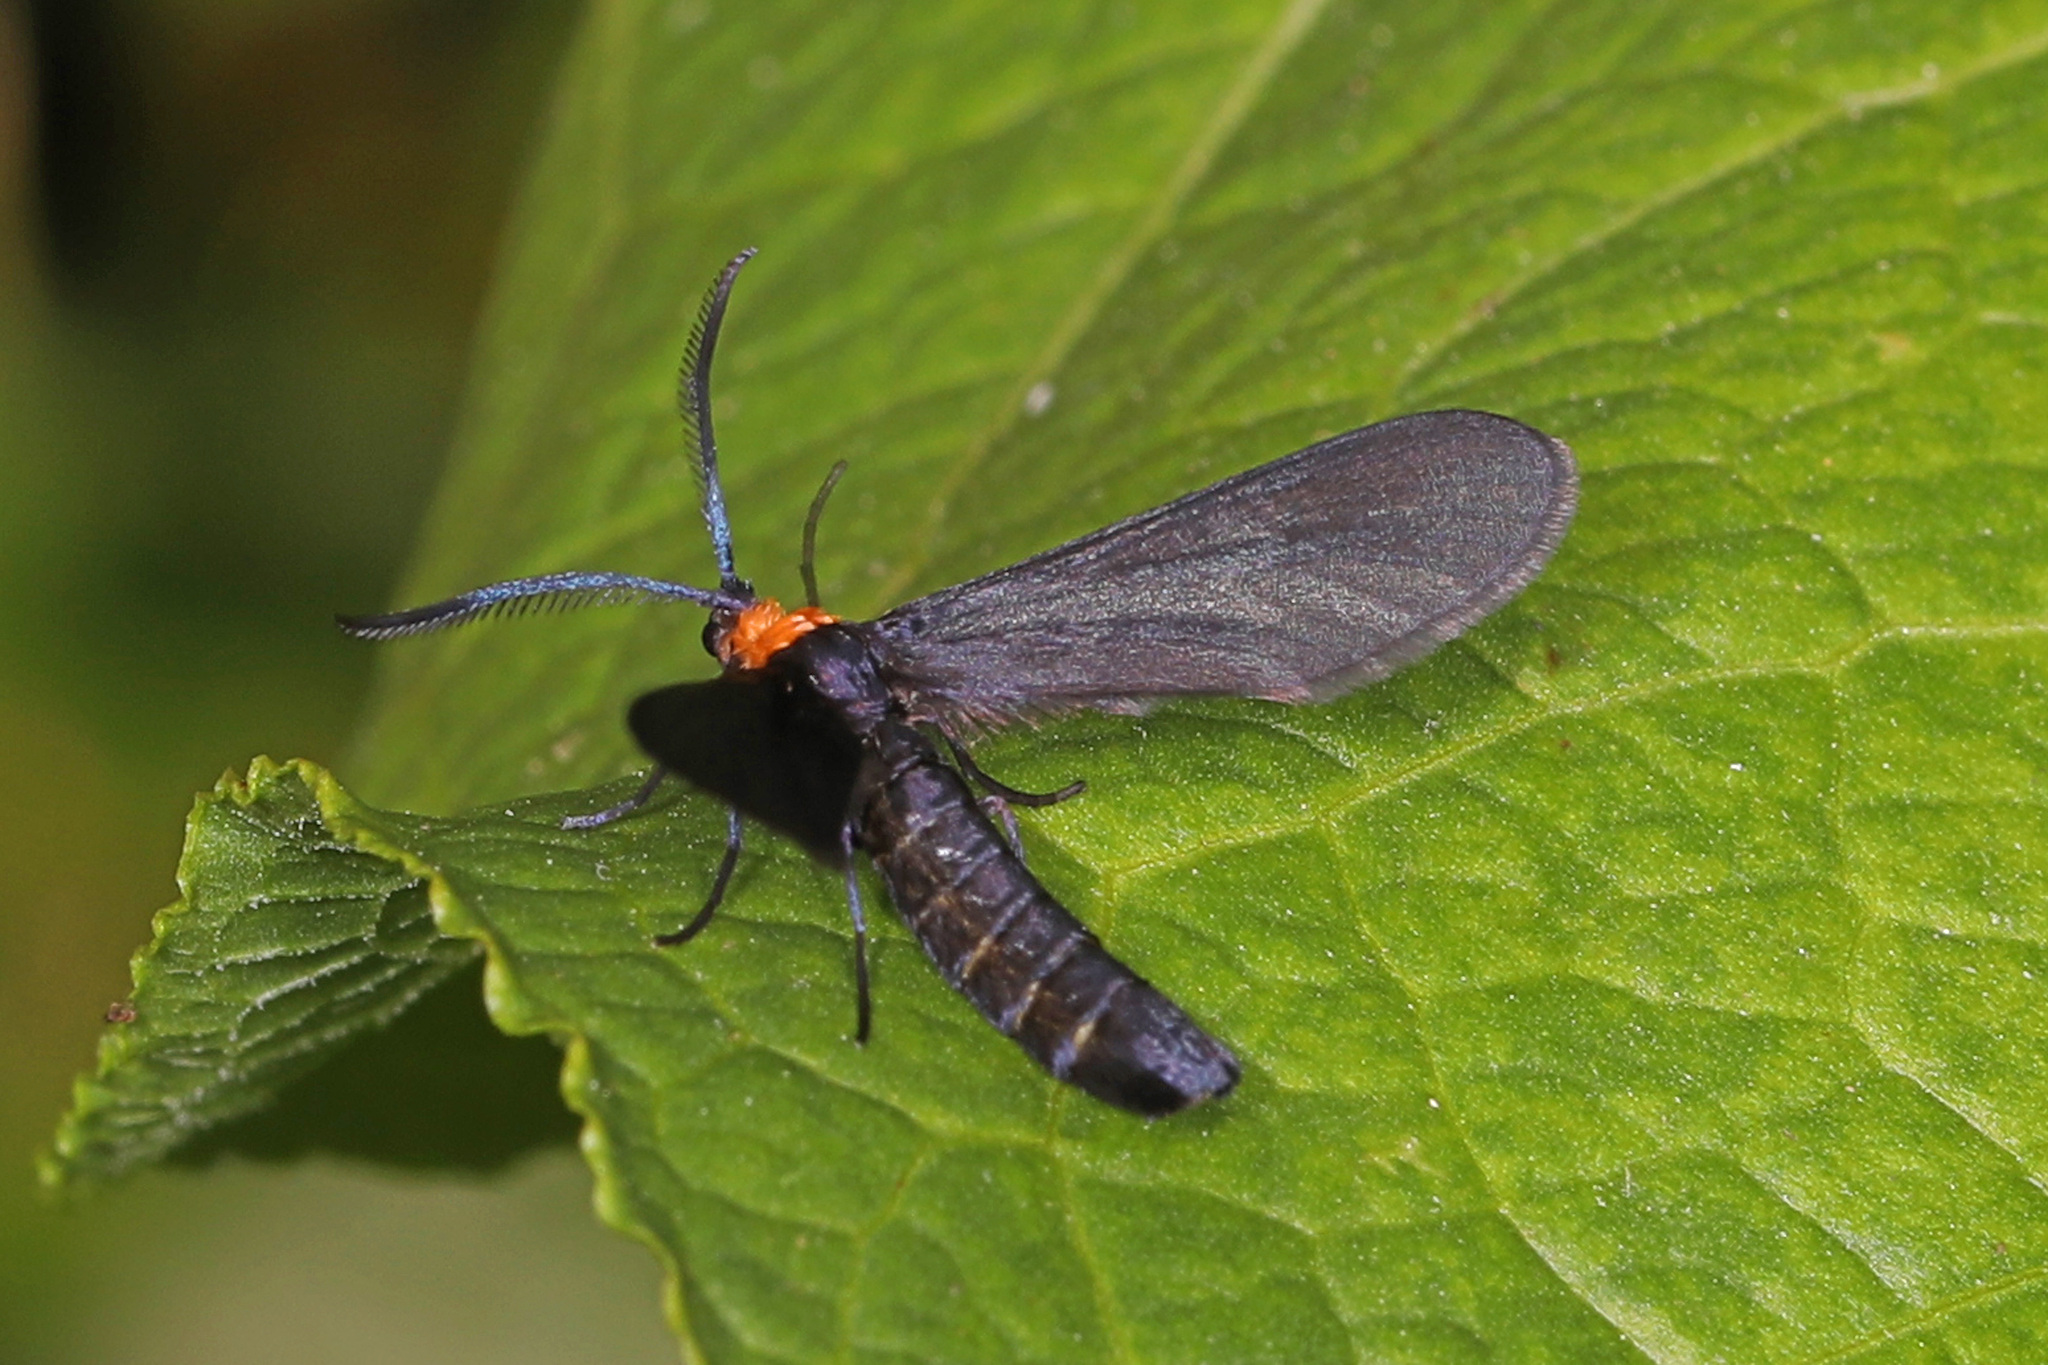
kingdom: Animalia
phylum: Arthropoda
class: Insecta
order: Lepidoptera
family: Zygaenidae
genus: Harrisina
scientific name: Harrisina americana
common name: Grapeleaf skeletonizer moth
